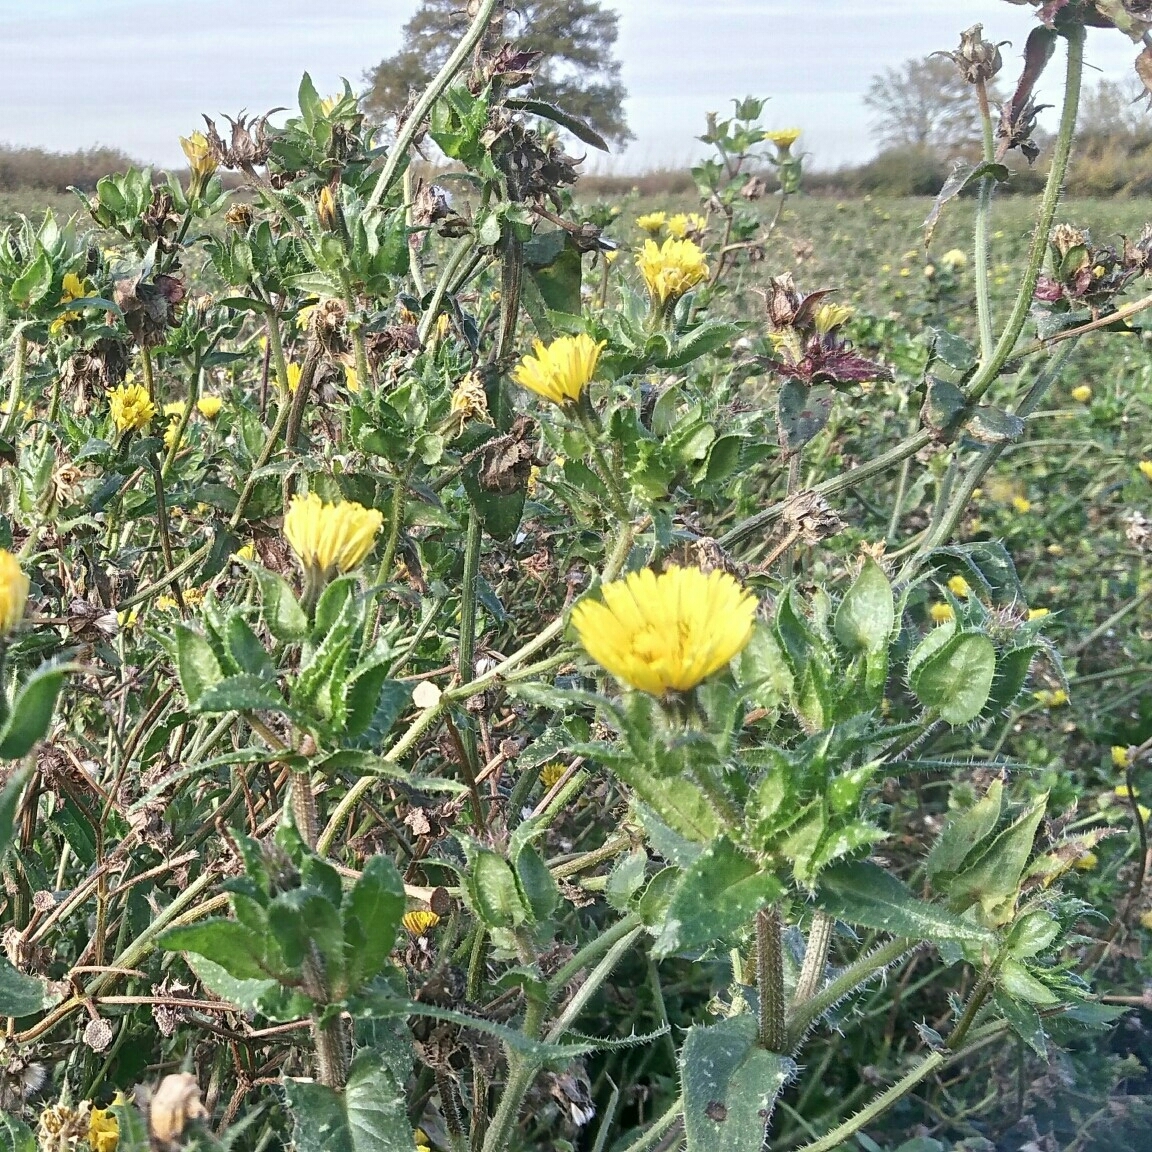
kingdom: Plantae
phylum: Tracheophyta
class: Magnoliopsida
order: Asterales
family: Asteraceae
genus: Helminthotheca
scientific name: Helminthotheca echioides
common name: Ox-tongue
